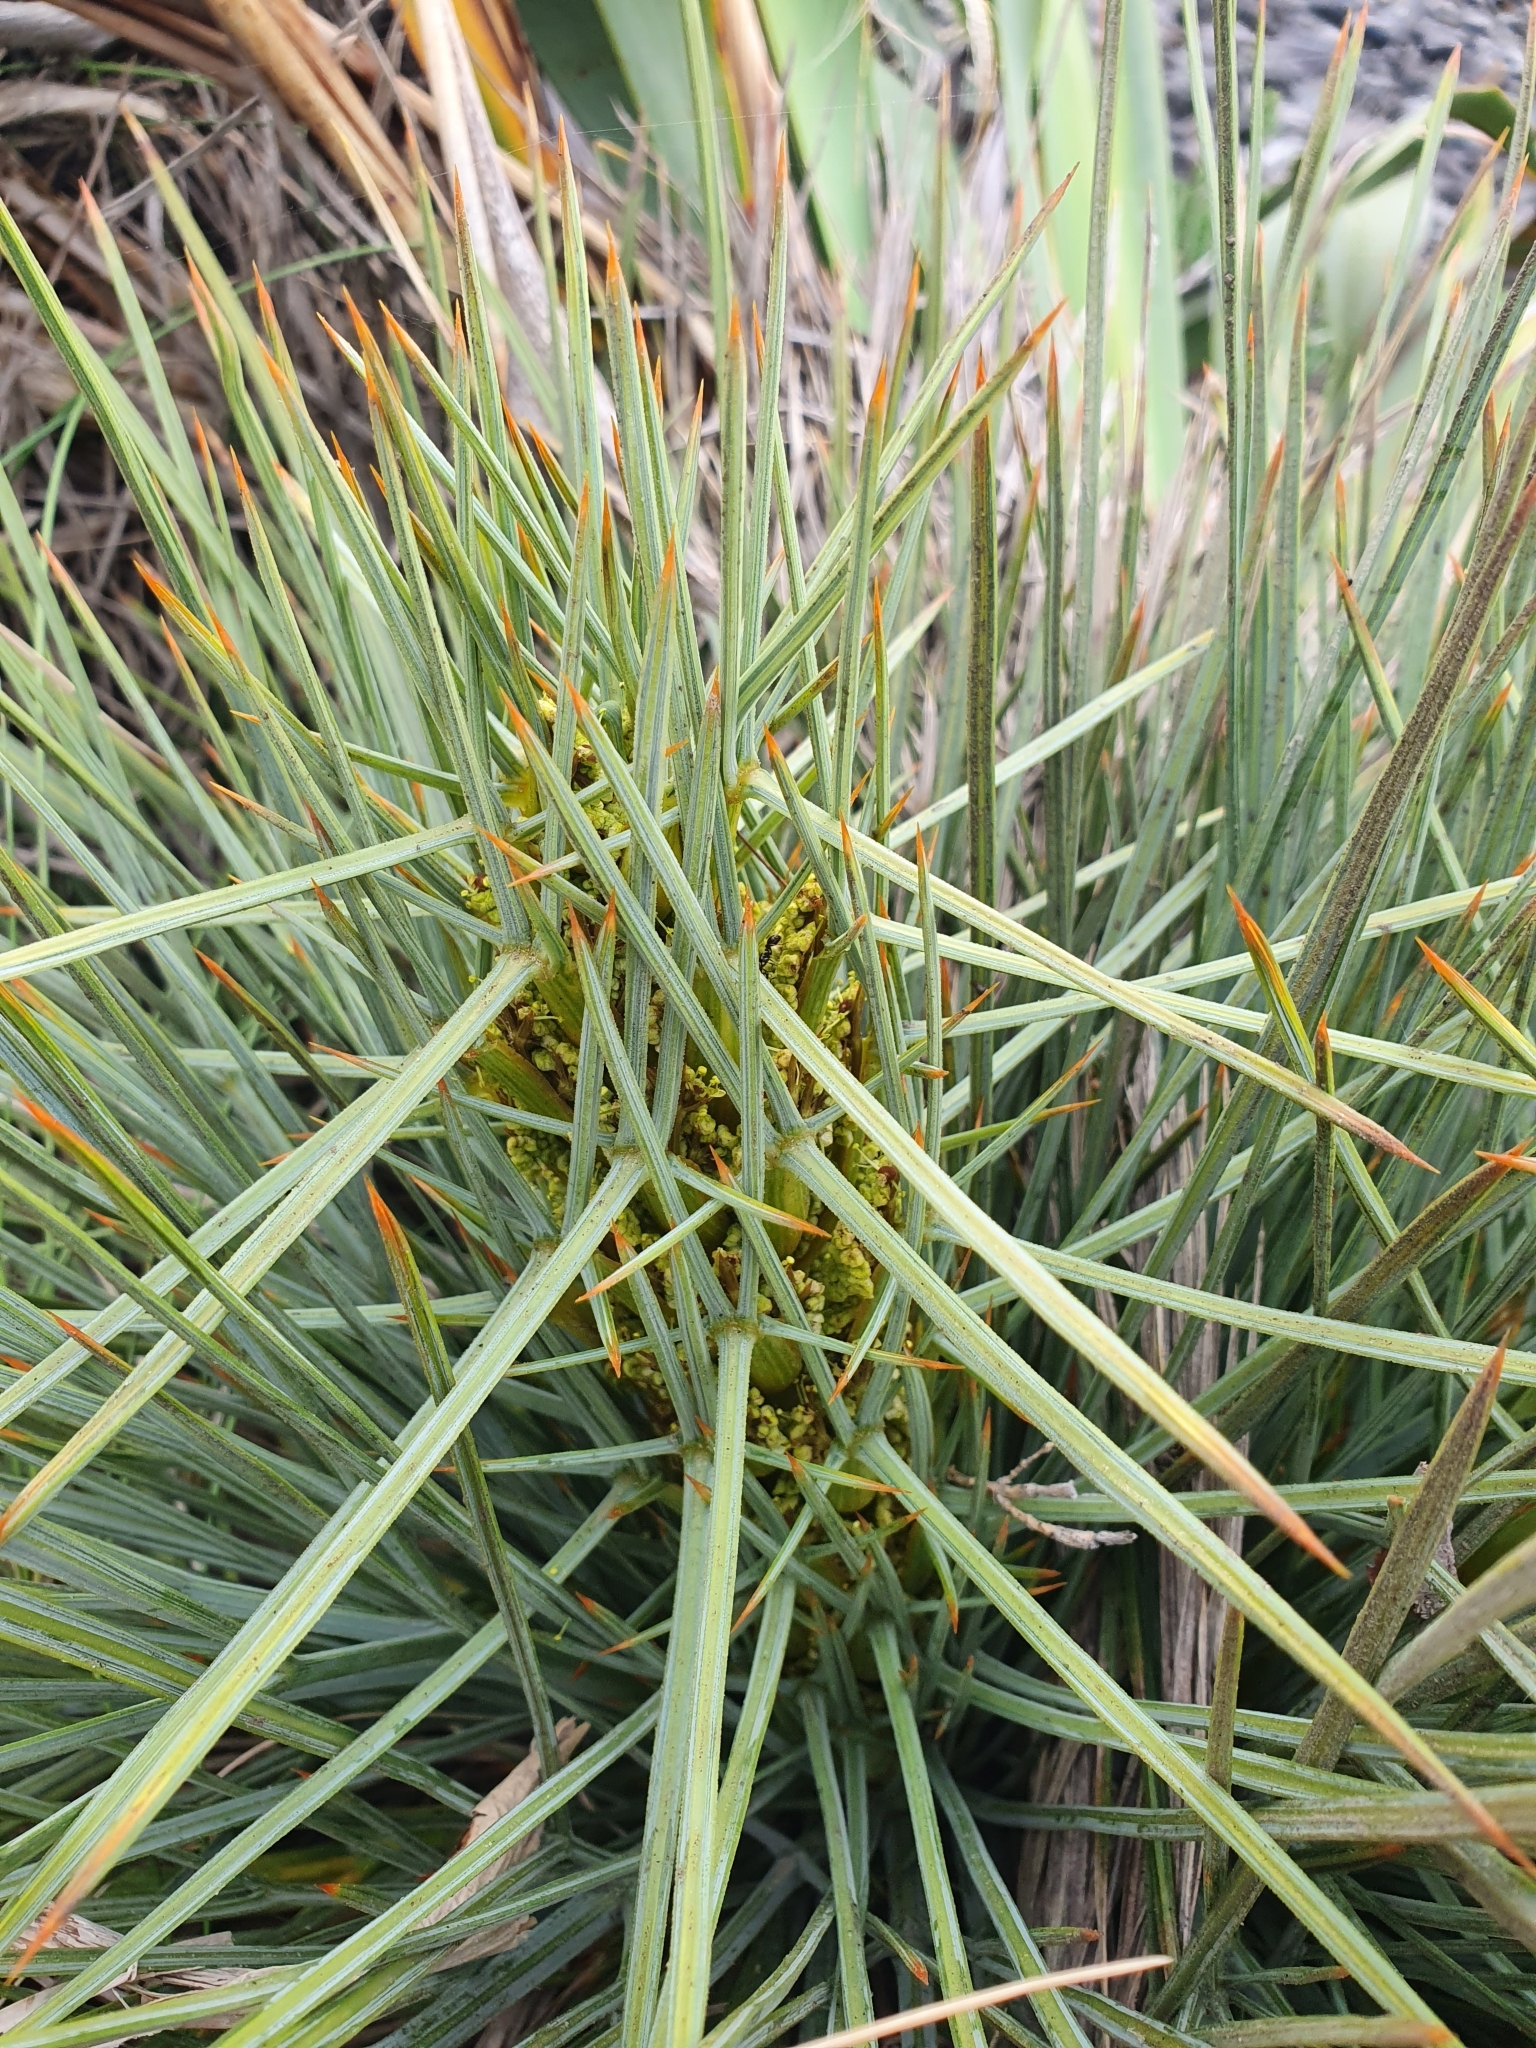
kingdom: Plantae
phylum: Tracheophyta
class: Magnoliopsida
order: Apiales
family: Apiaceae
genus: Aciphylla
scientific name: Aciphylla squarrosa
